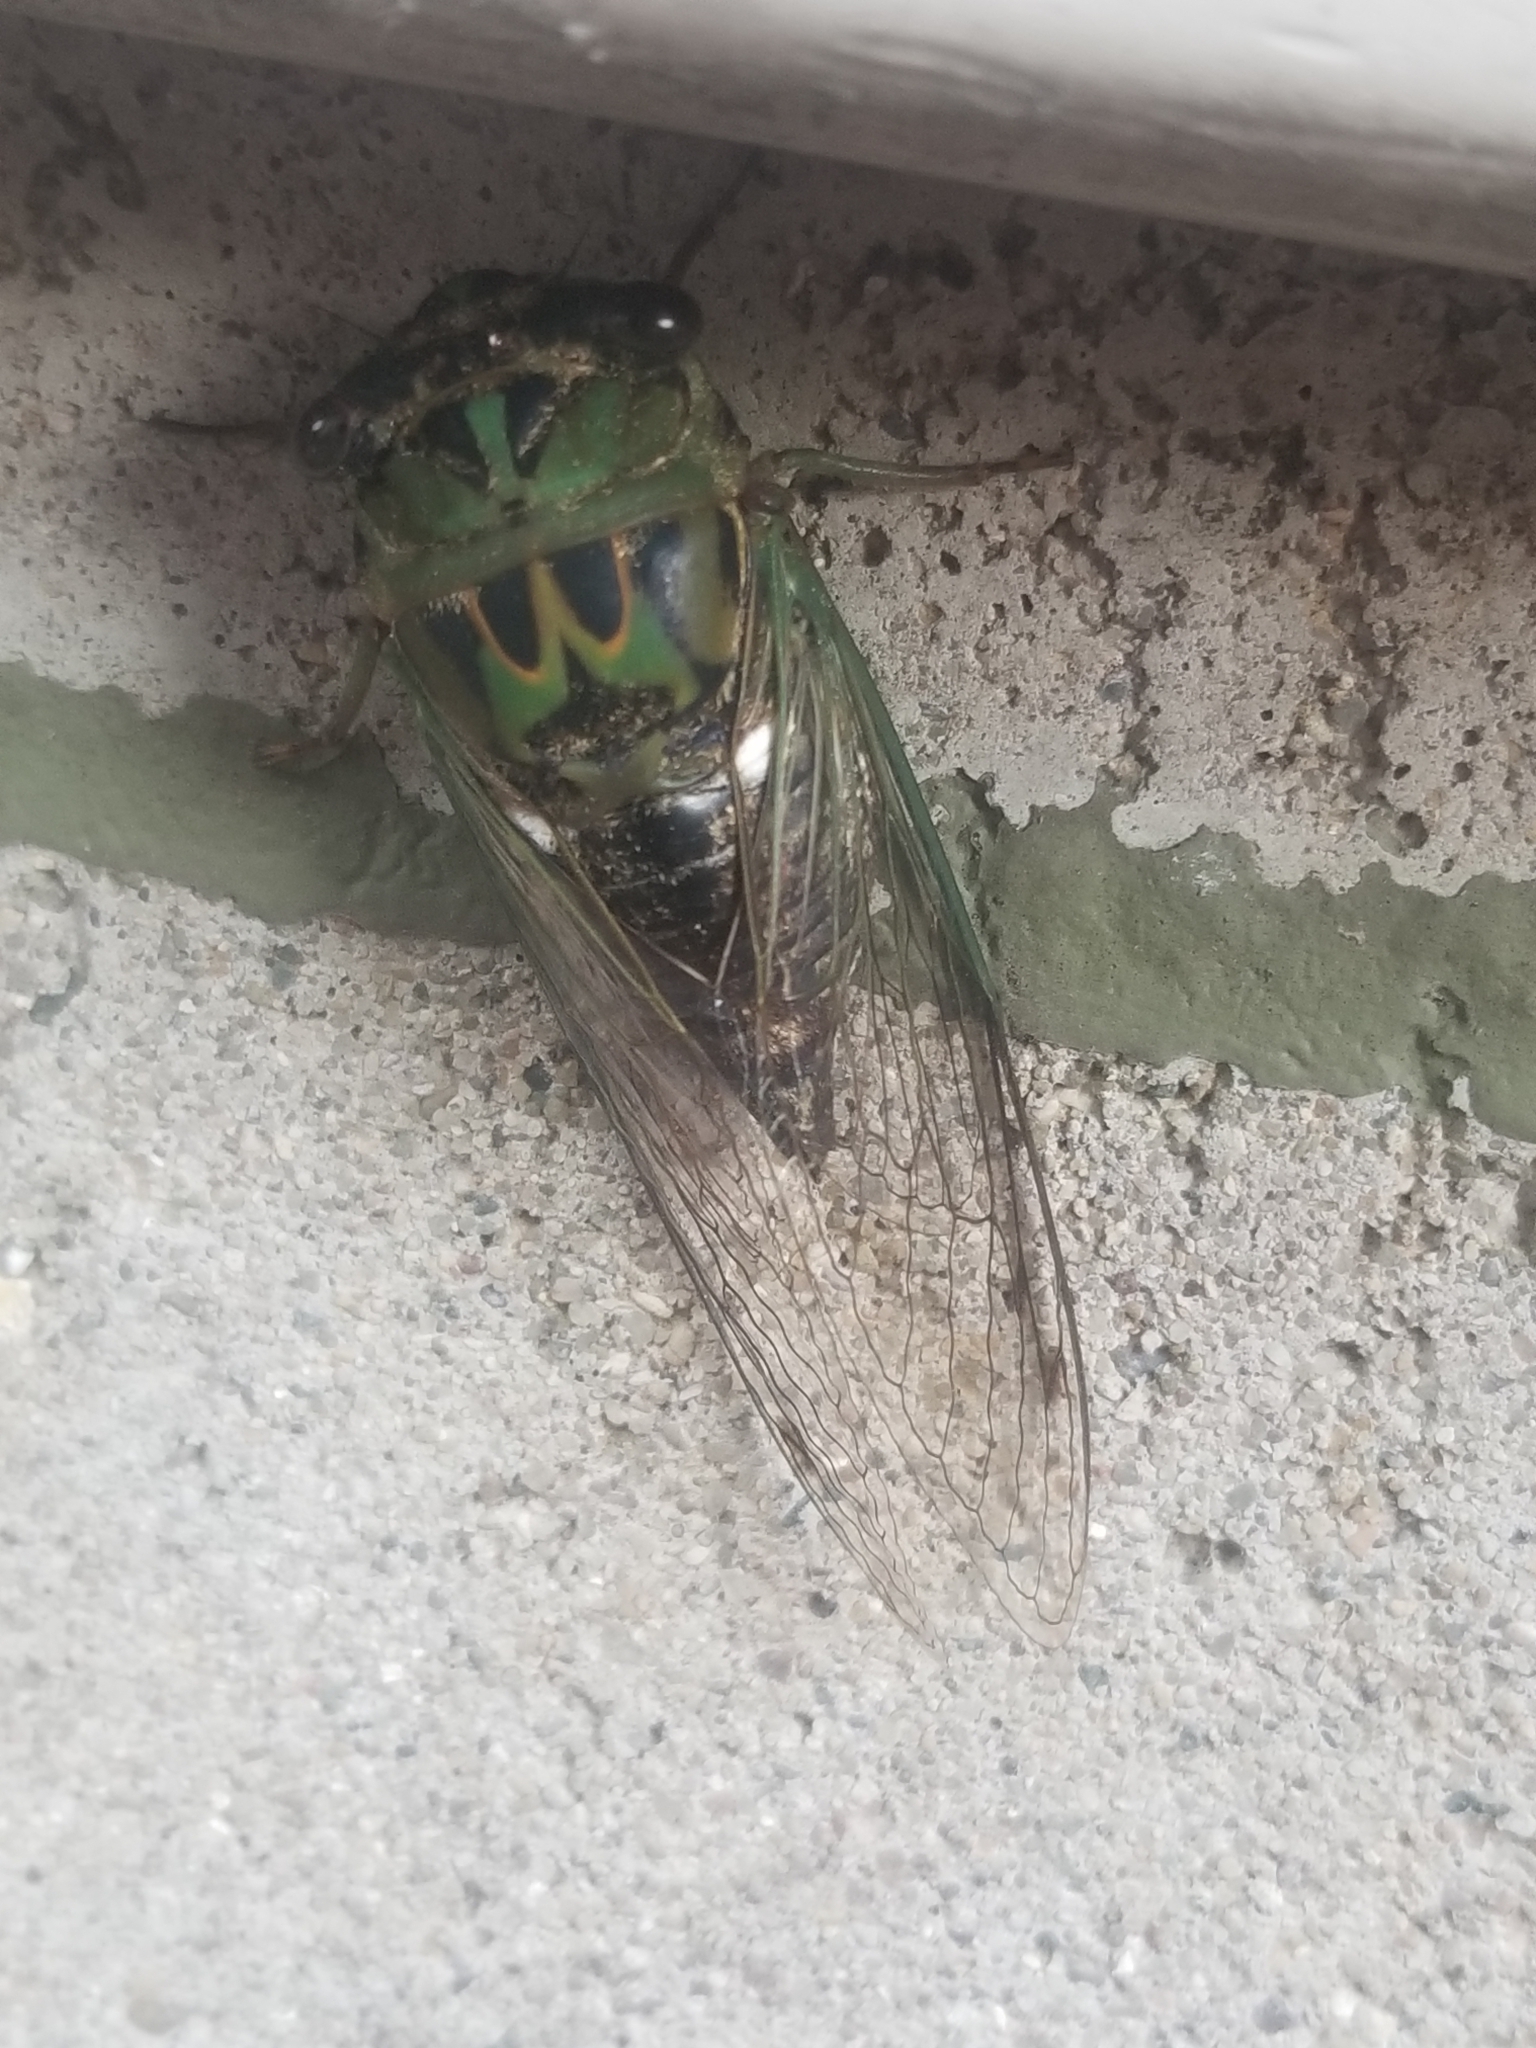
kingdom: Animalia
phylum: Arthropoda
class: Insecta
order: Hemiptera
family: Cicadidae
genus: Neotibicen
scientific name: Neotibicen pruinosus
